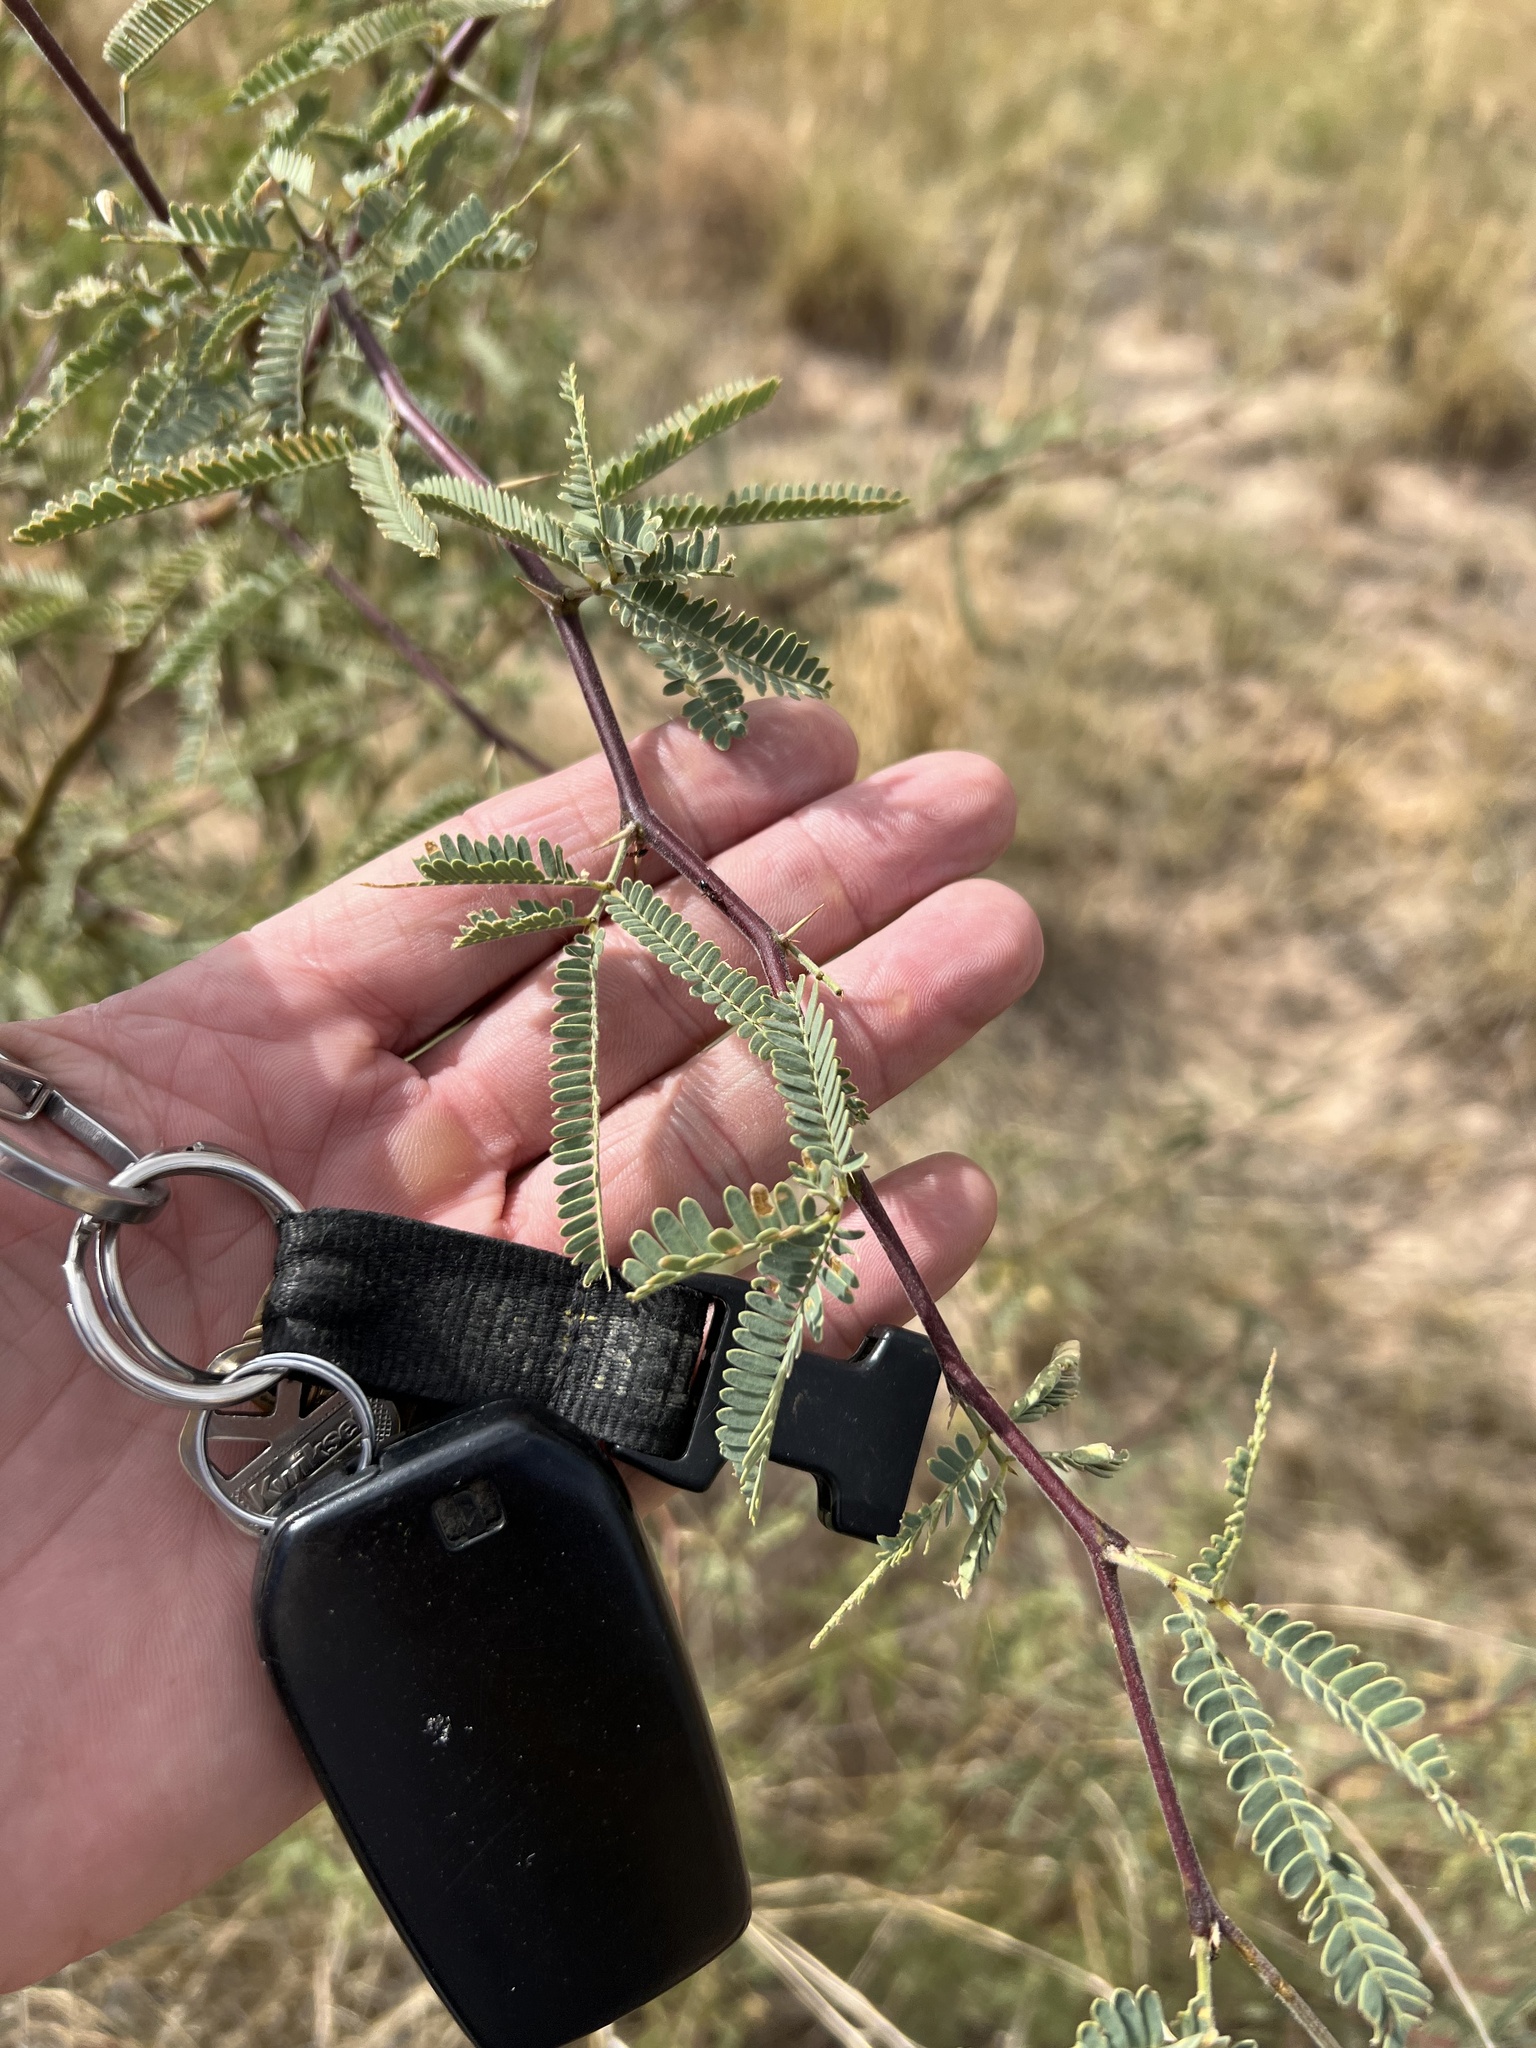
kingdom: Plantae
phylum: Tracheophyta
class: Magnoliopsida
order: Fabales
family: Fabaceae
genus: Prosopis
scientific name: Prosopis velutina
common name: Velvet mesquite
